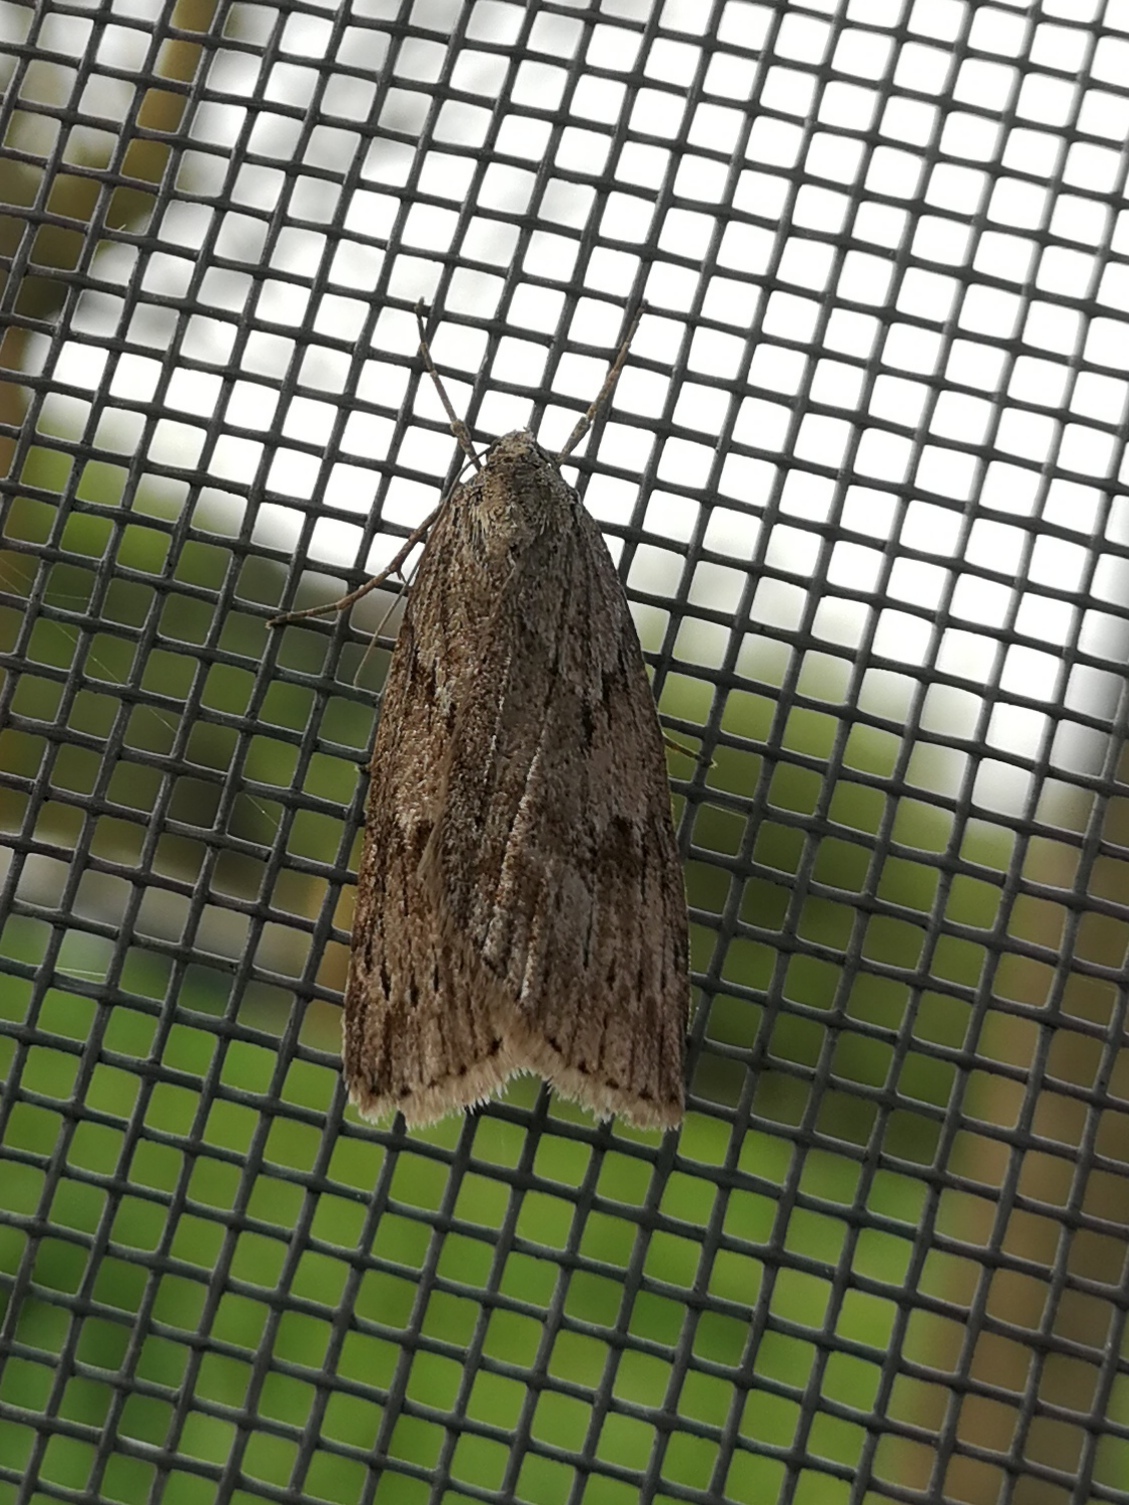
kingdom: Animalia
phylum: Arthropoda
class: Insecta
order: Lepidoptera
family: Geometridae
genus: Pachycnemia
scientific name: Pachycnemia hippocastanaria
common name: Horse chestnut
